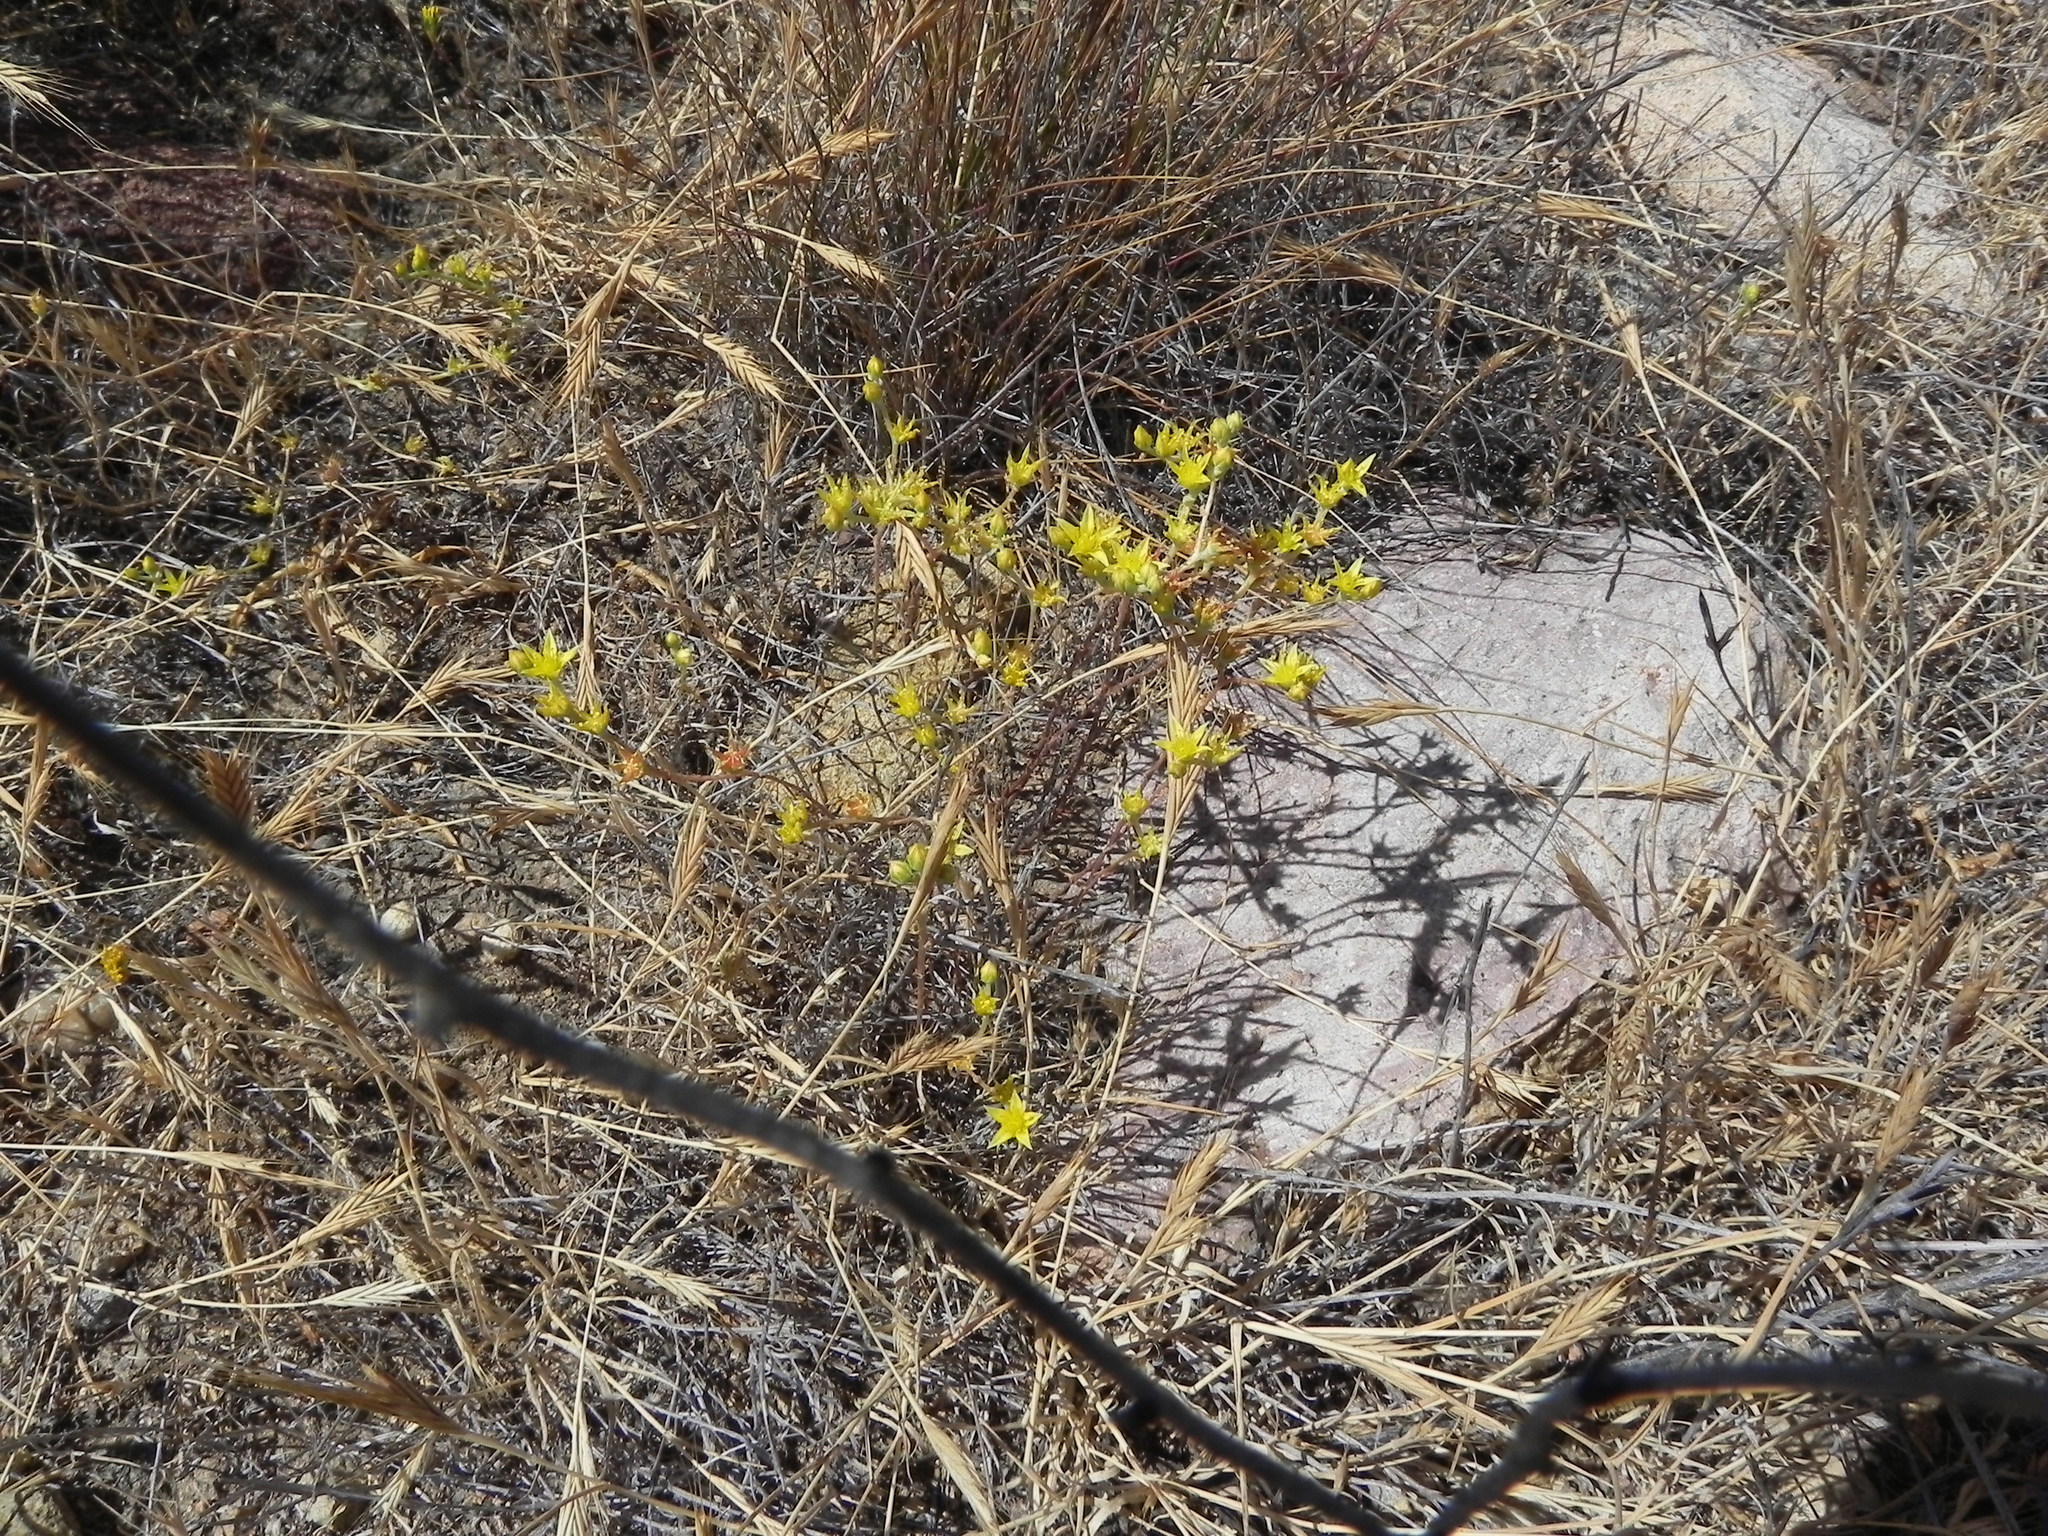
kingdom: Plantae
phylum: Tracheophyta
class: Magnoliopsida
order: Saxifragales
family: Crassulaceae
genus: Dudleya
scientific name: Dudleya variegata
